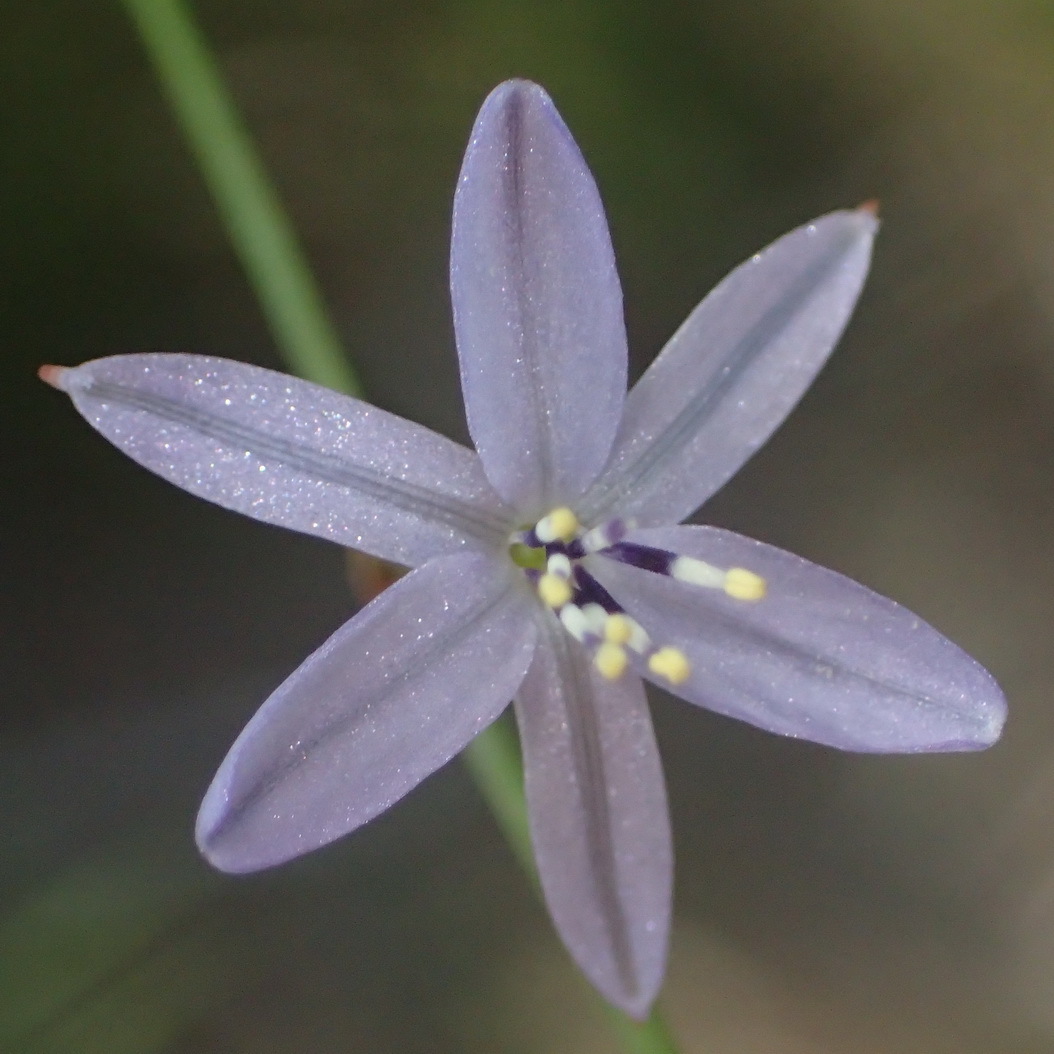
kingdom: Plantae
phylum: Tracheophyta
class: Liliopsida
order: Asparagales
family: Asphodelaceae
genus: Caesia
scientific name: Caesia contorta
